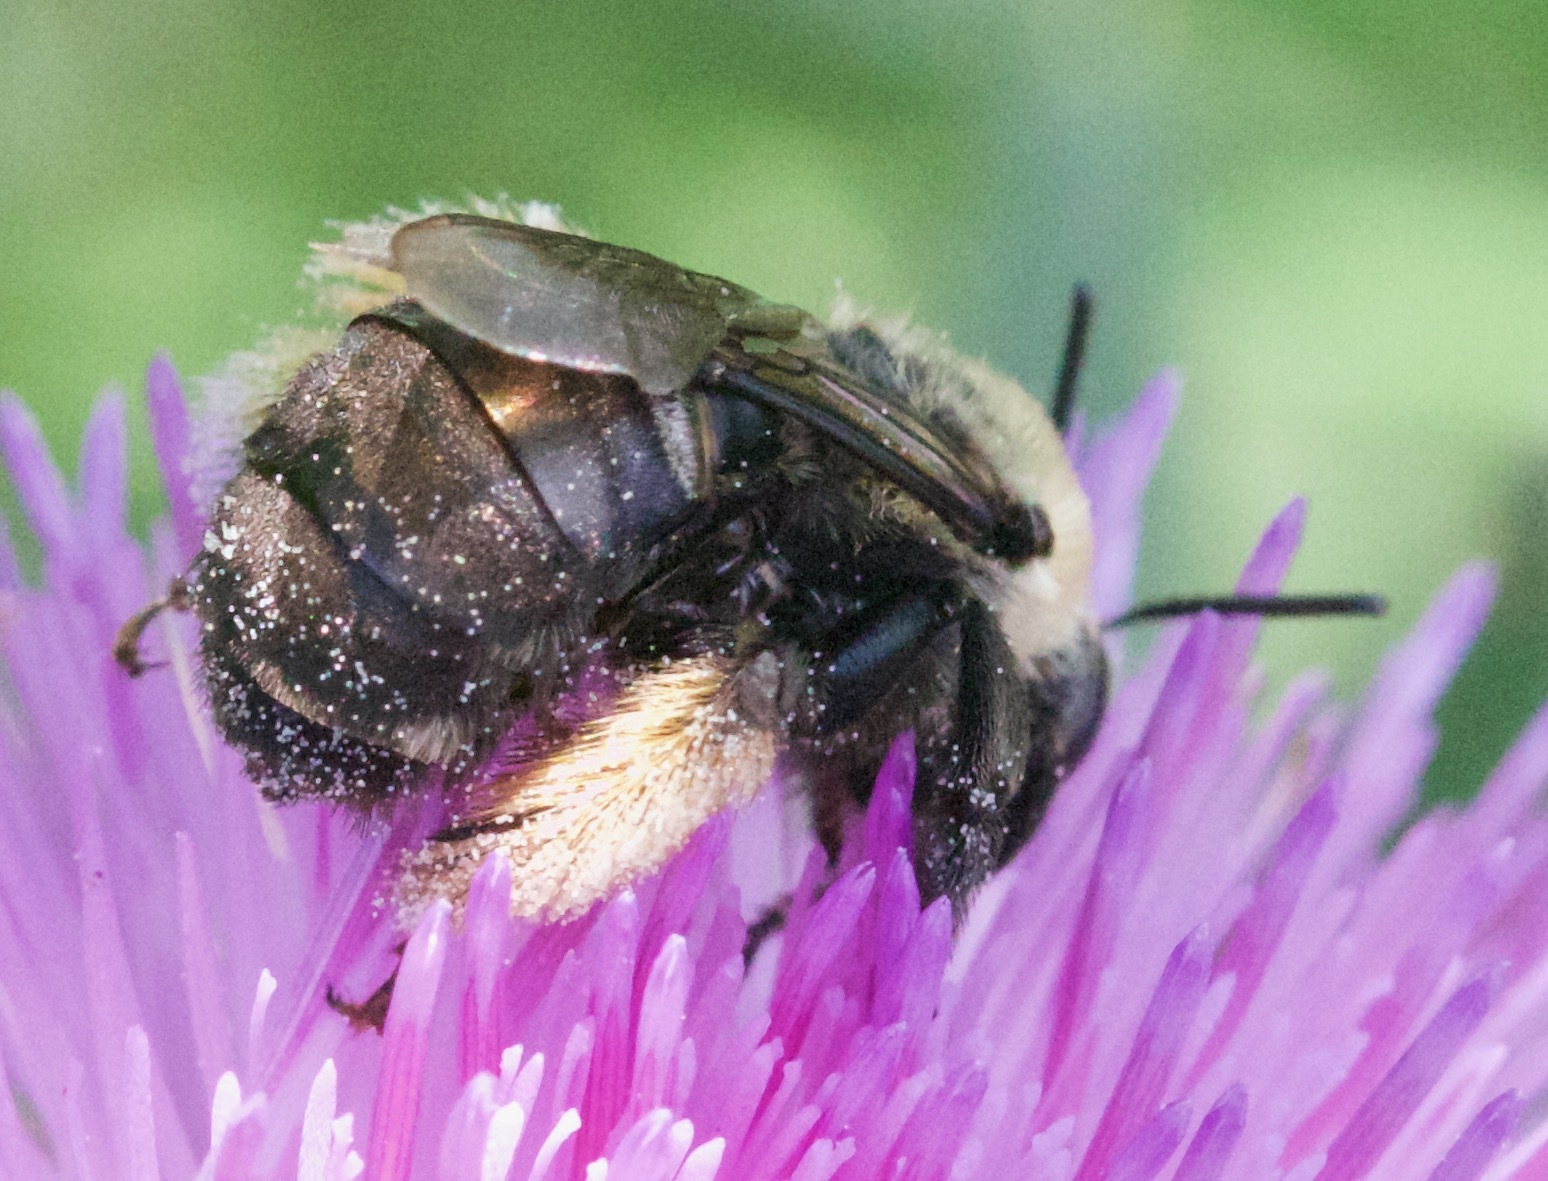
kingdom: Animalia
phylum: Arthropoda
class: Insecta
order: Hymenoptera
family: Apidae
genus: Melissodes
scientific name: Melissodes desponsus
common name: Thistle long-horned bee
